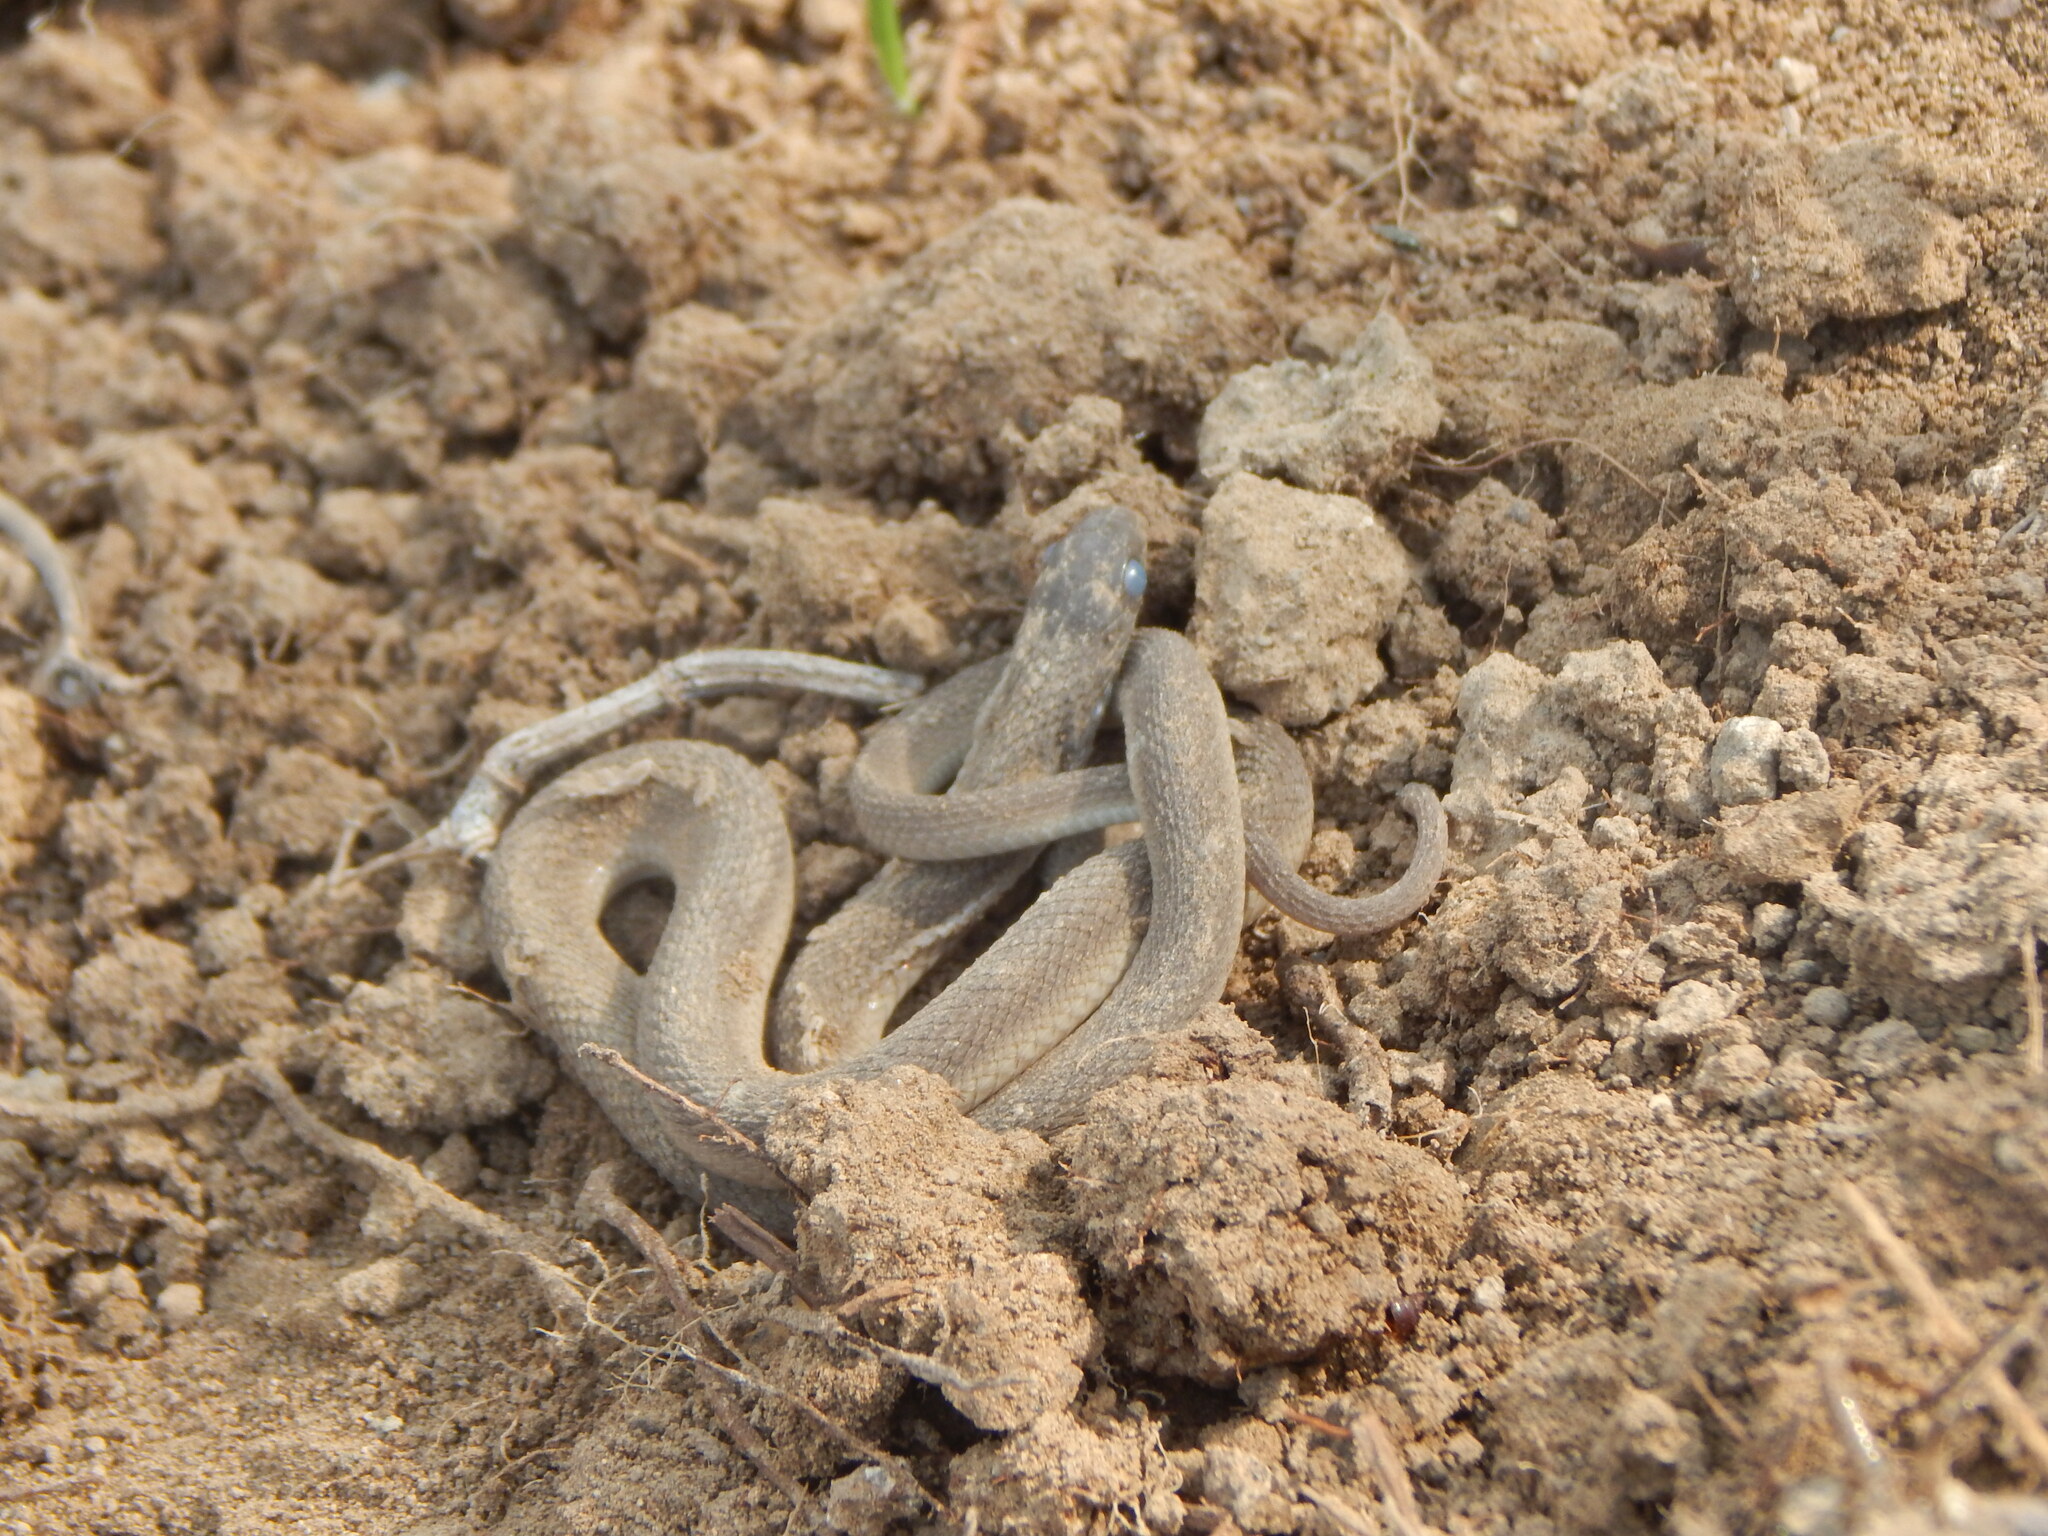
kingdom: Animalia
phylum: Chordata
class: Squamata
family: Colubridae
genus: Dasypeltis
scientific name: Dasypeltis atra
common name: African egg-eating snake
